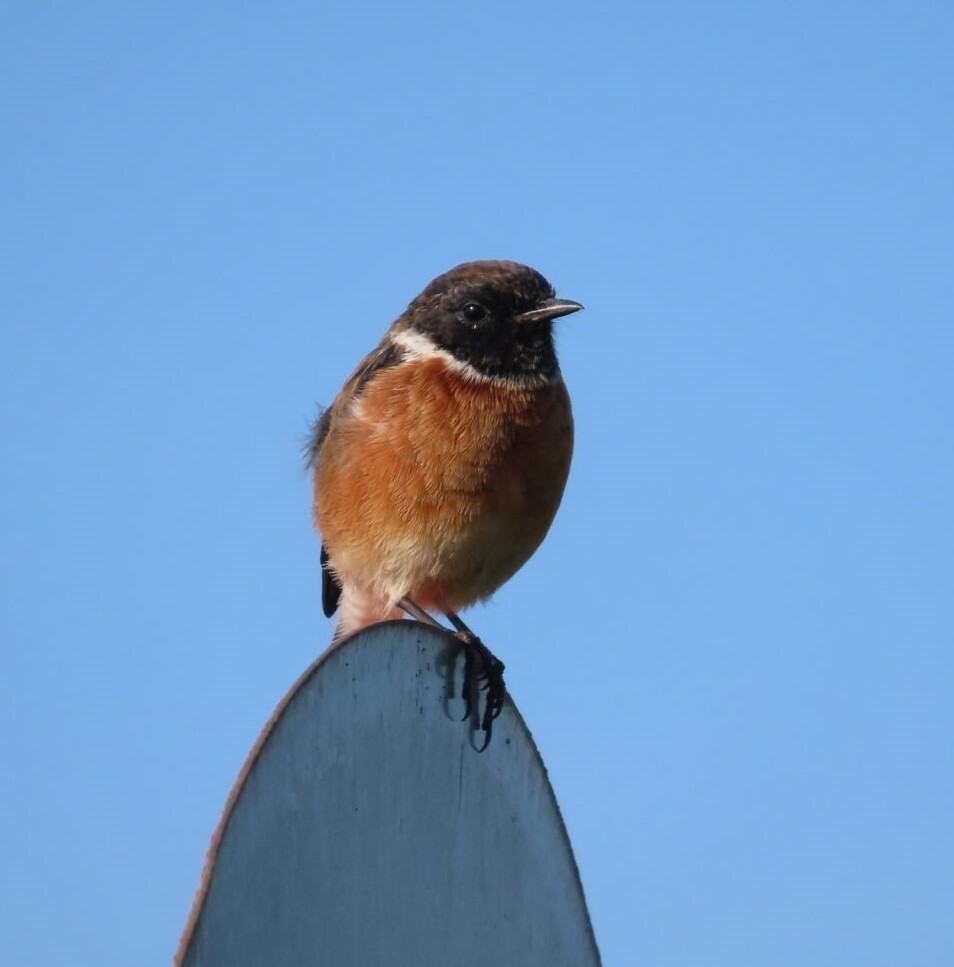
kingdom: Animalia
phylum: Chordata
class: Aves
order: Passeriformes
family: Muscicapidae
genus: Saxicola
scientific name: Saxicola torquatus
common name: African stonechat
